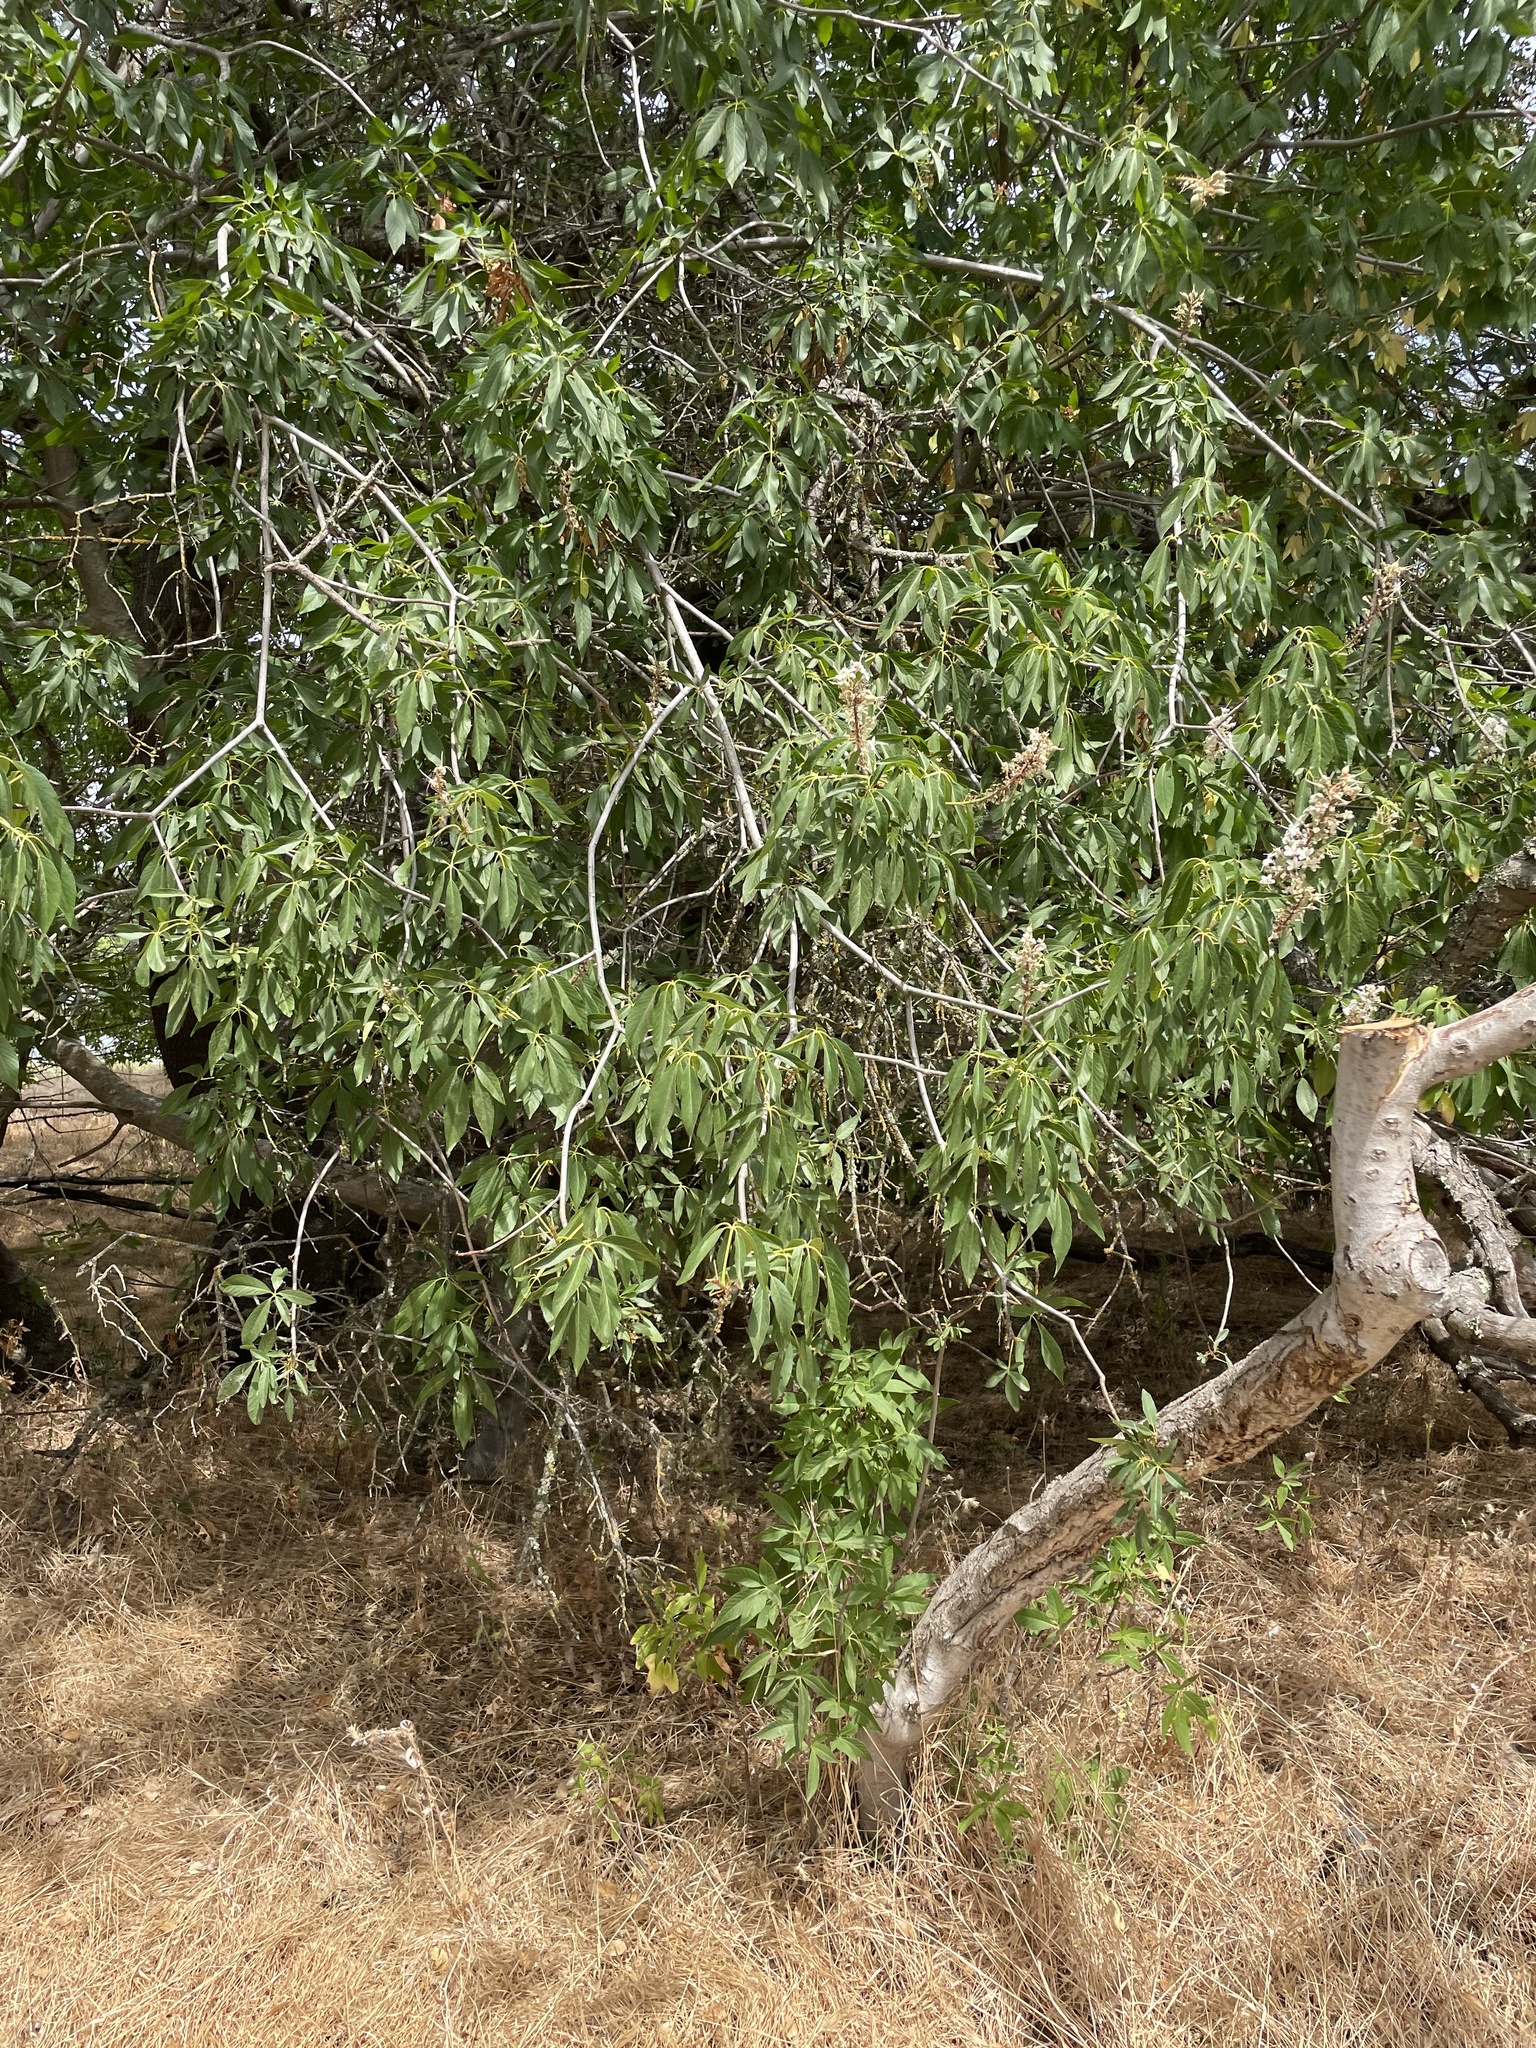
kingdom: Plantae
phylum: Tracheophyta
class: Magnoliopsida
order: Sapindales
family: Sapindaceae
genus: Aesculus
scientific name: Aesculus californica
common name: California buckeye
